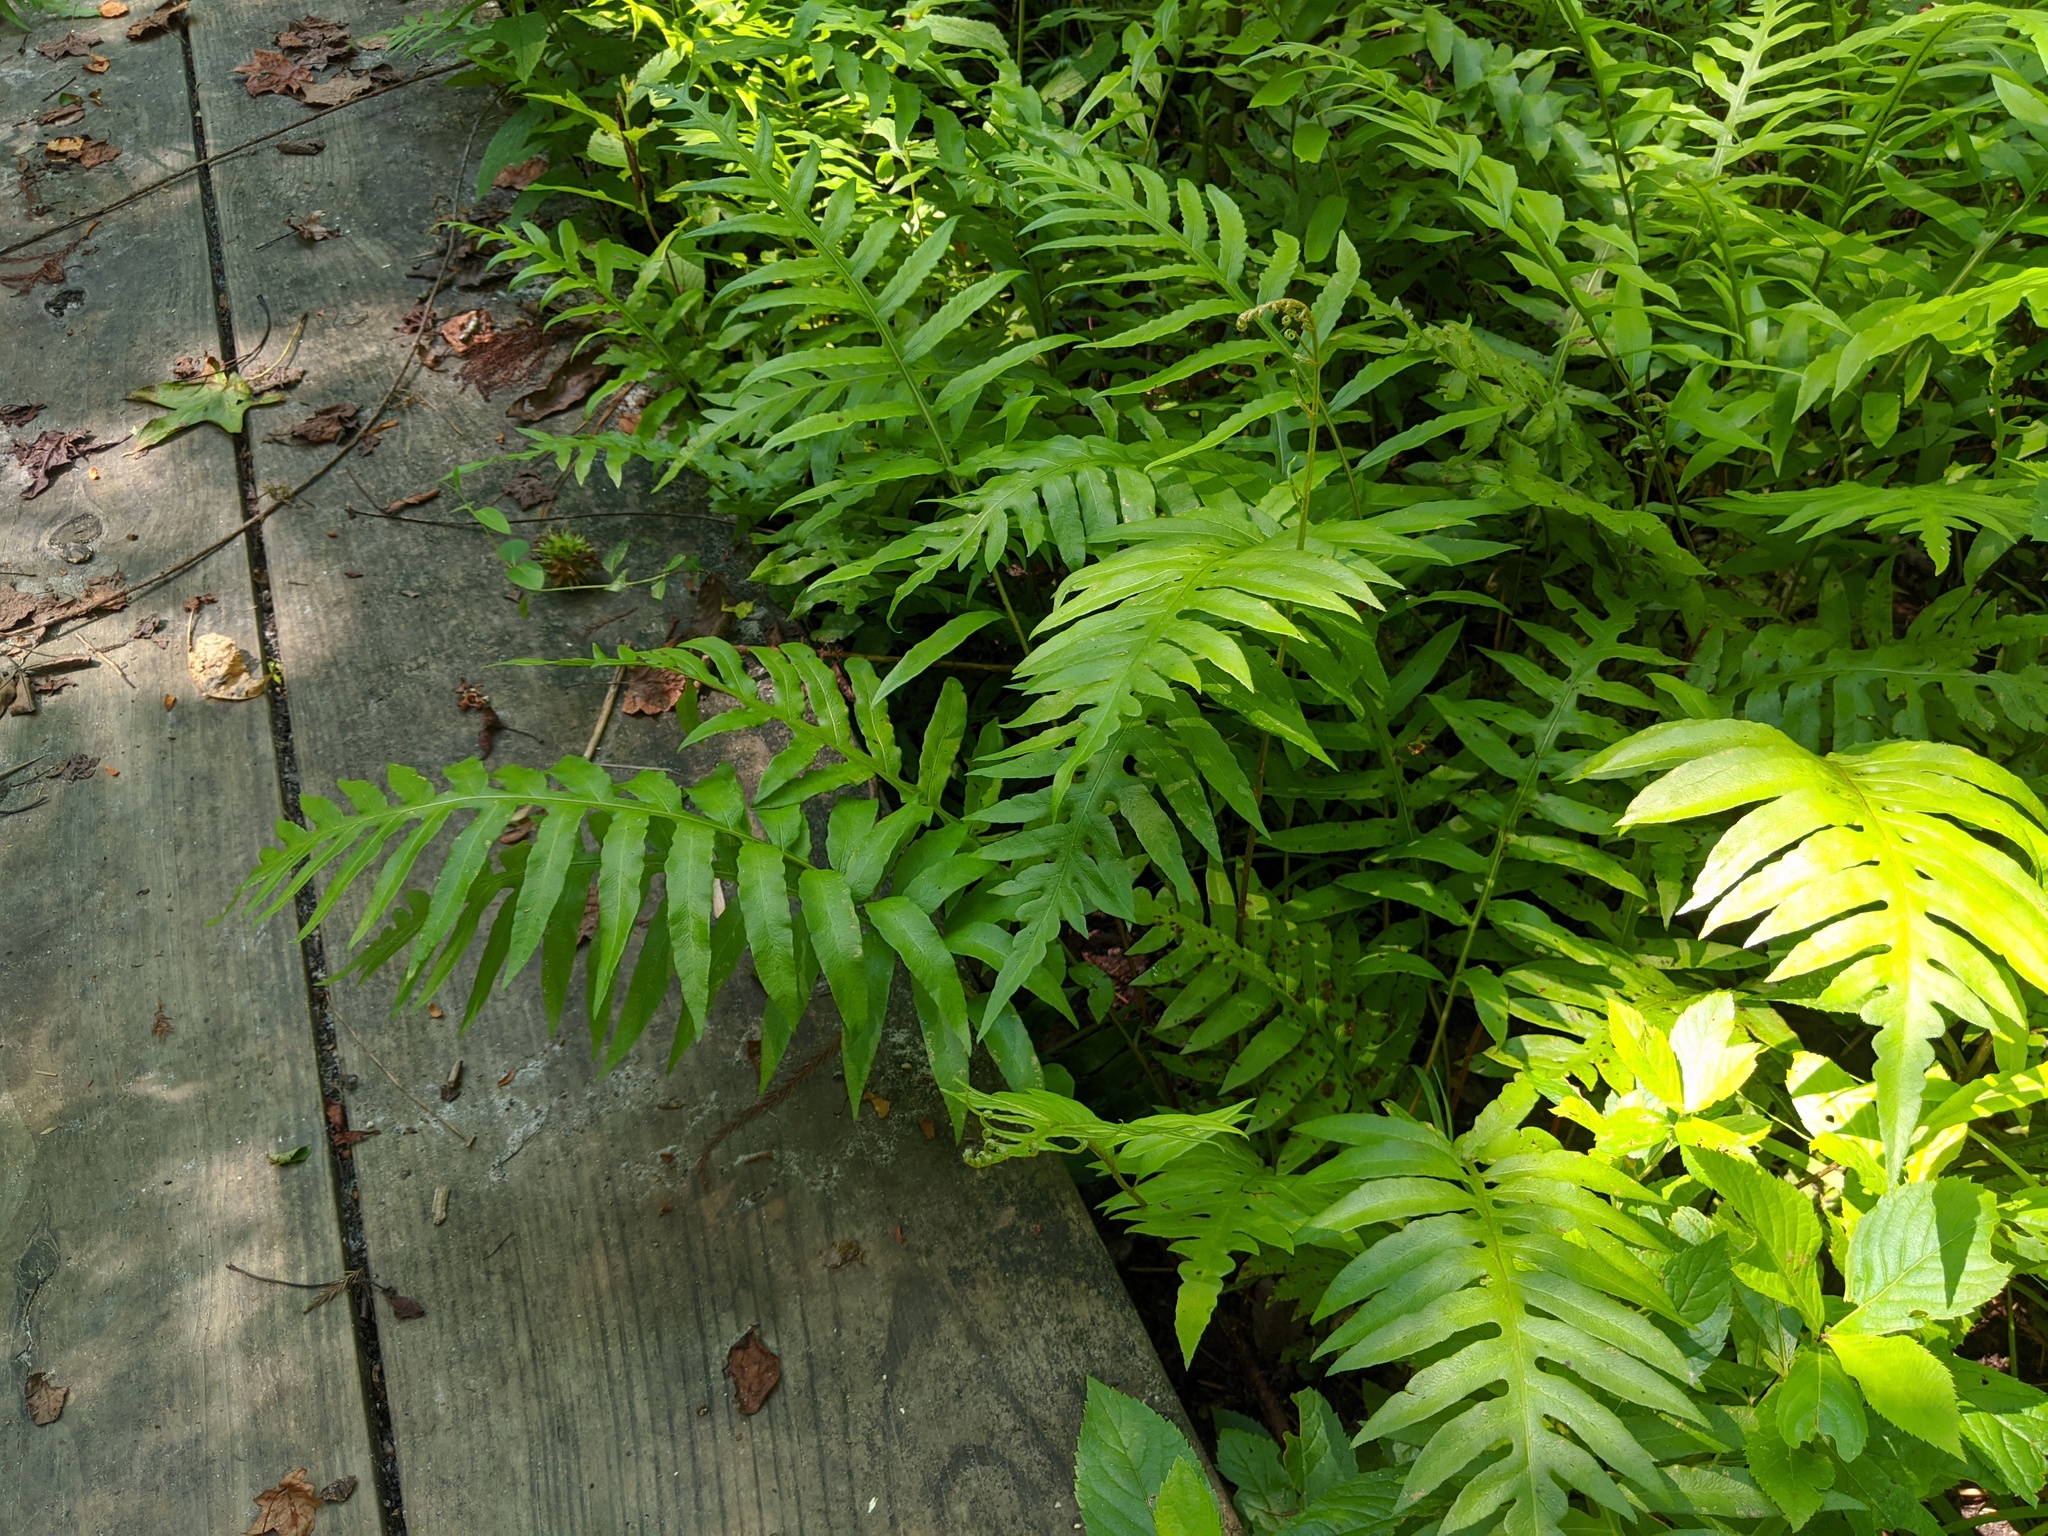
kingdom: Plantae
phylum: Tracheophyta
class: Polypodiopsida
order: Polypodiales
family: Blechnaceae
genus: Lorinseria
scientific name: Lorinseria areolata
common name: Dwarf chain fern
